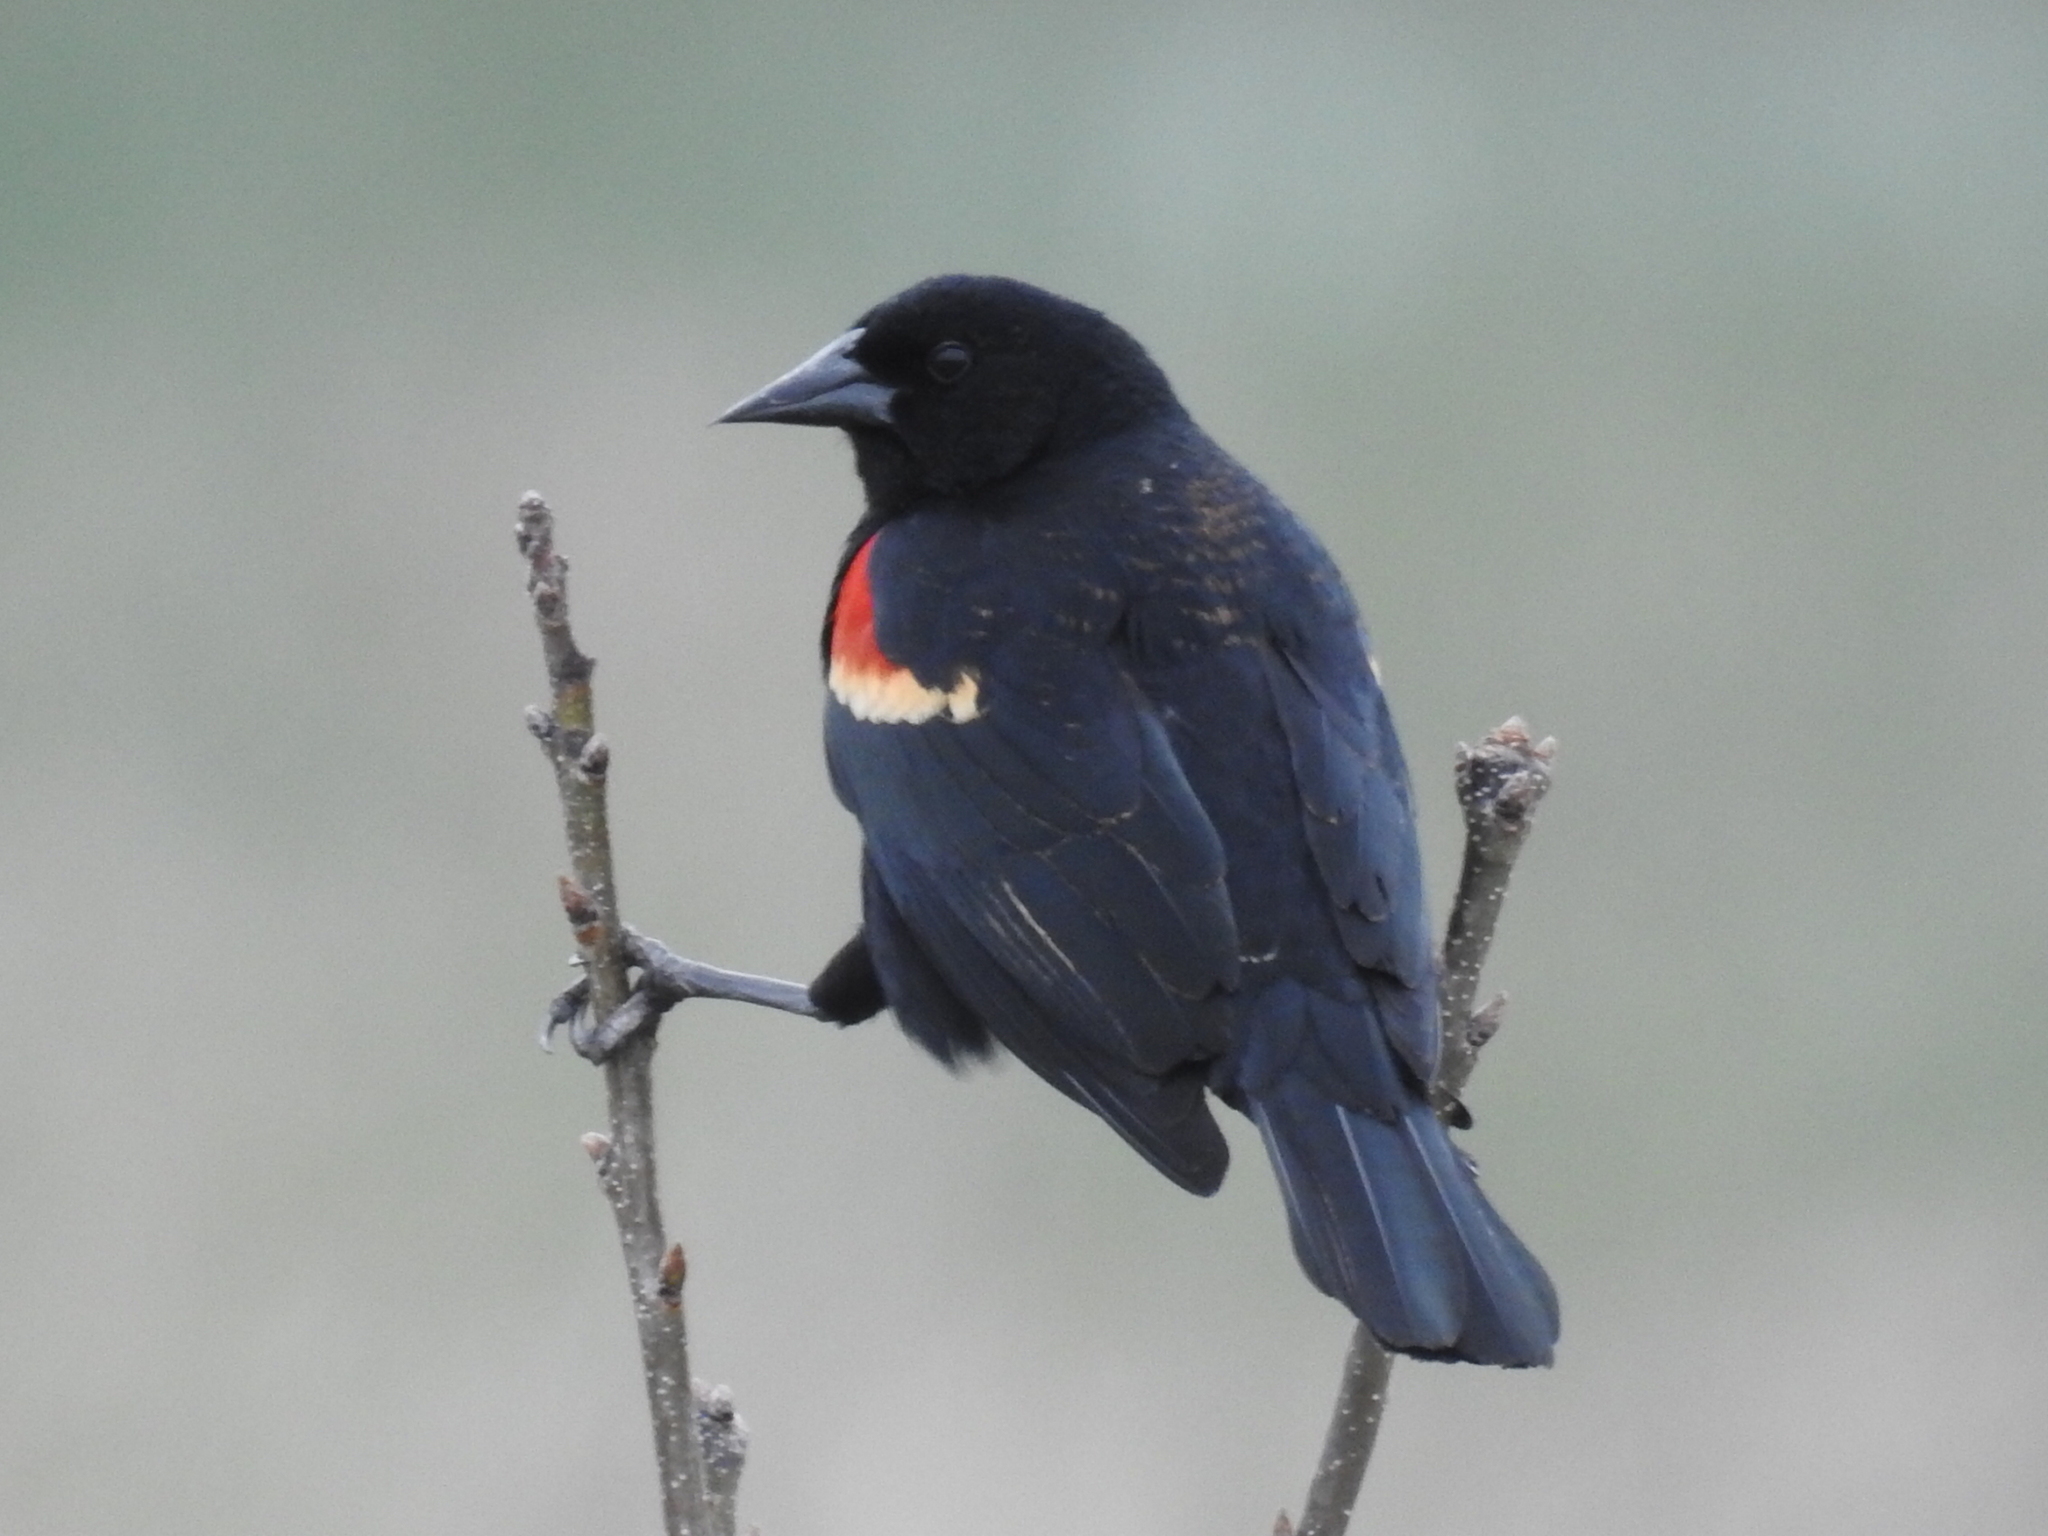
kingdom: Animalia
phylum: Chordata
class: Aves
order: Passeriformes
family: Icteridae
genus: Agelaius
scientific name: Agelaius phoeniceus
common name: Red-winged blackbird
